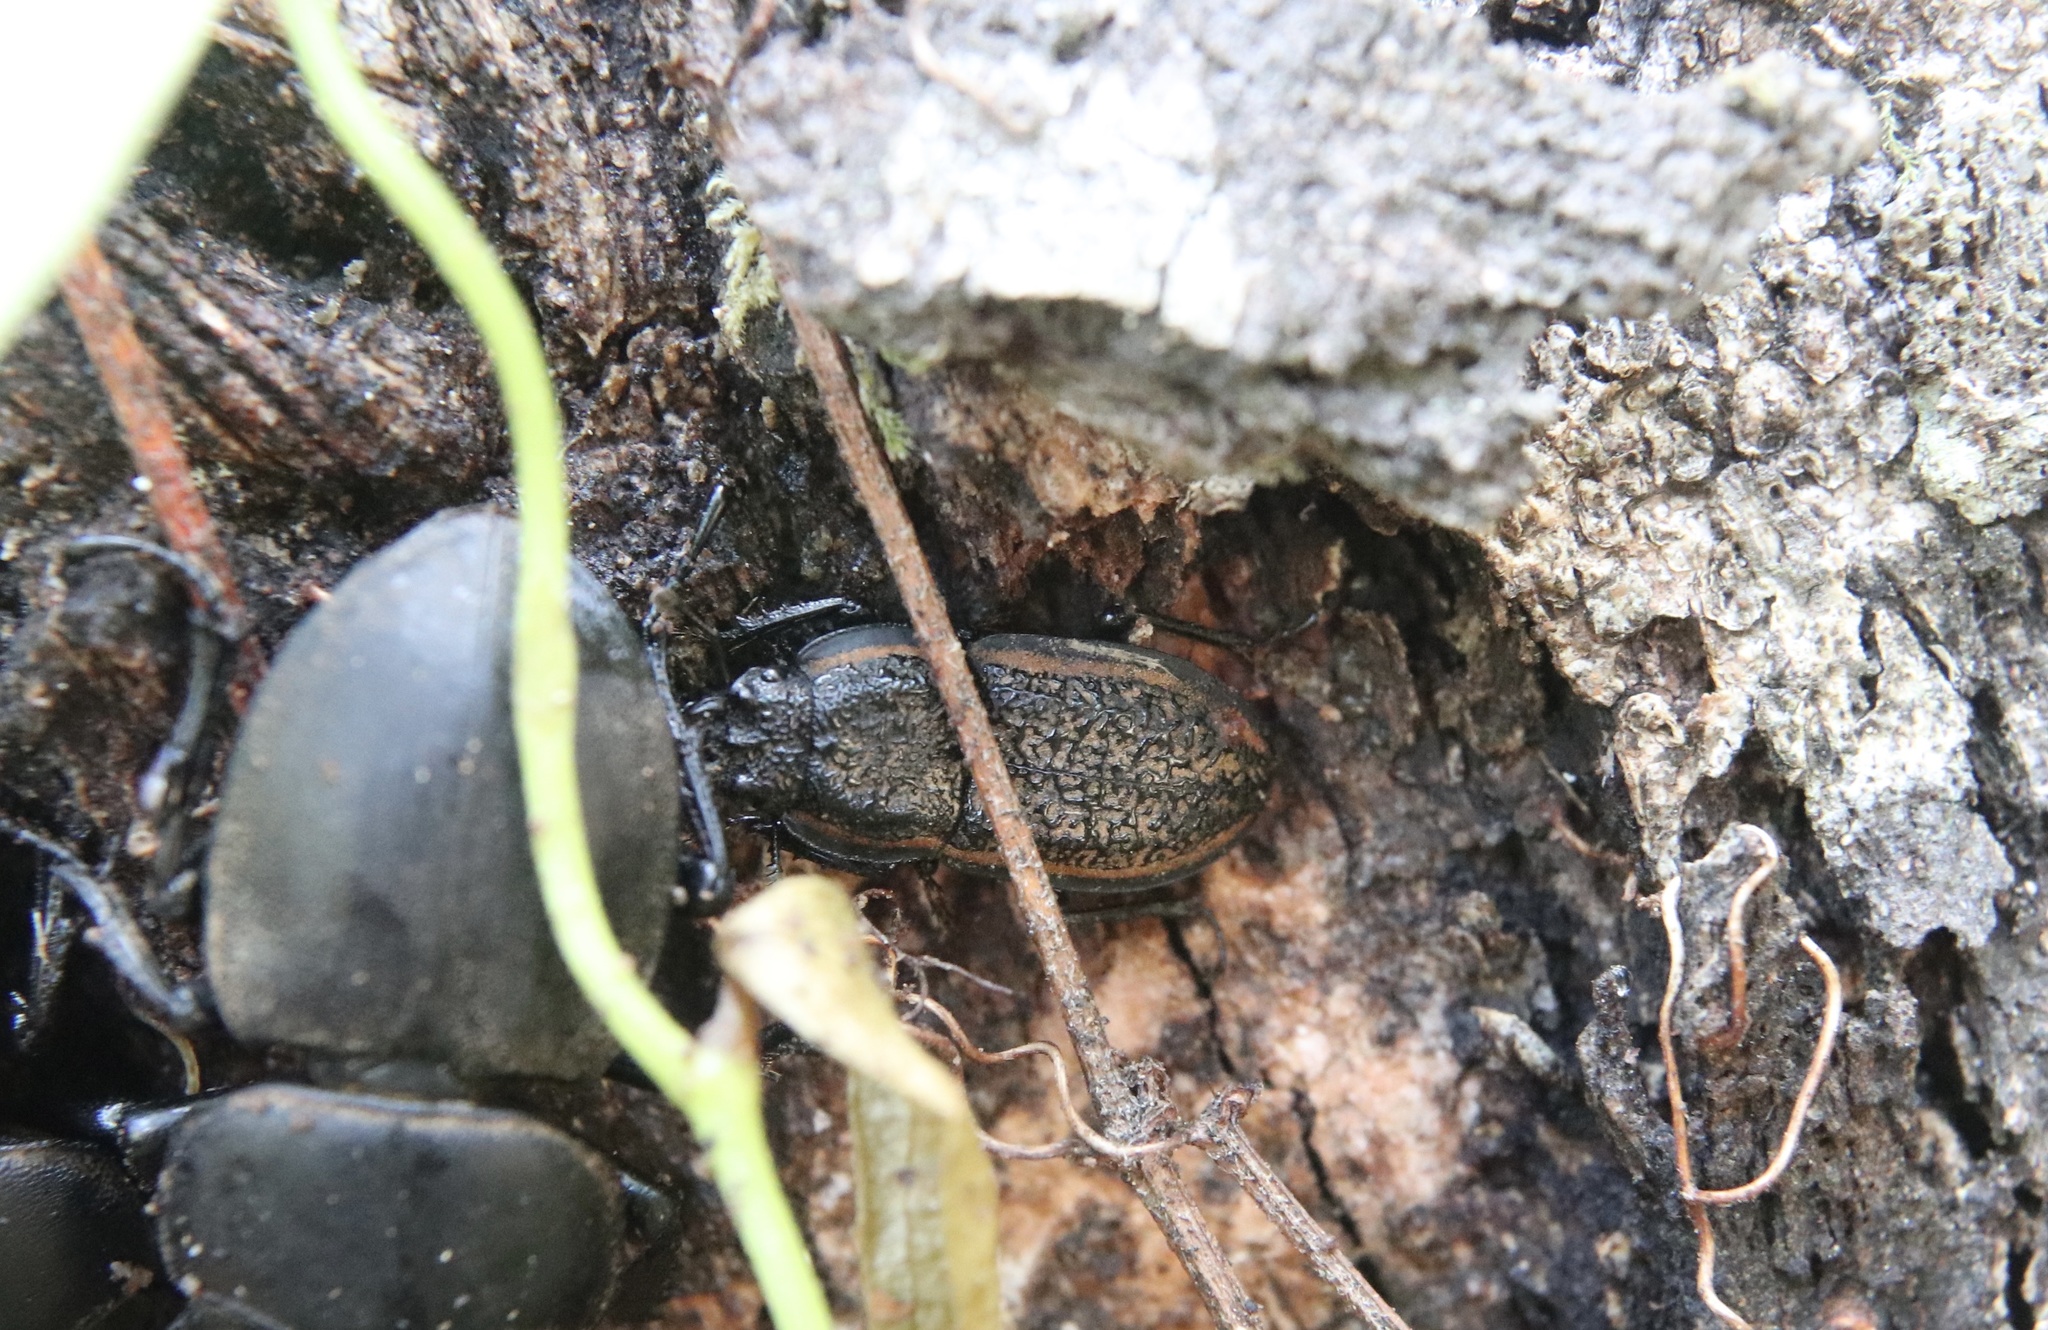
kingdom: Animalia
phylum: Arthropoda
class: Insecta
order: Coleoptera
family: Lucanidae
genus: Erichius
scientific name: Erichius caelatus
